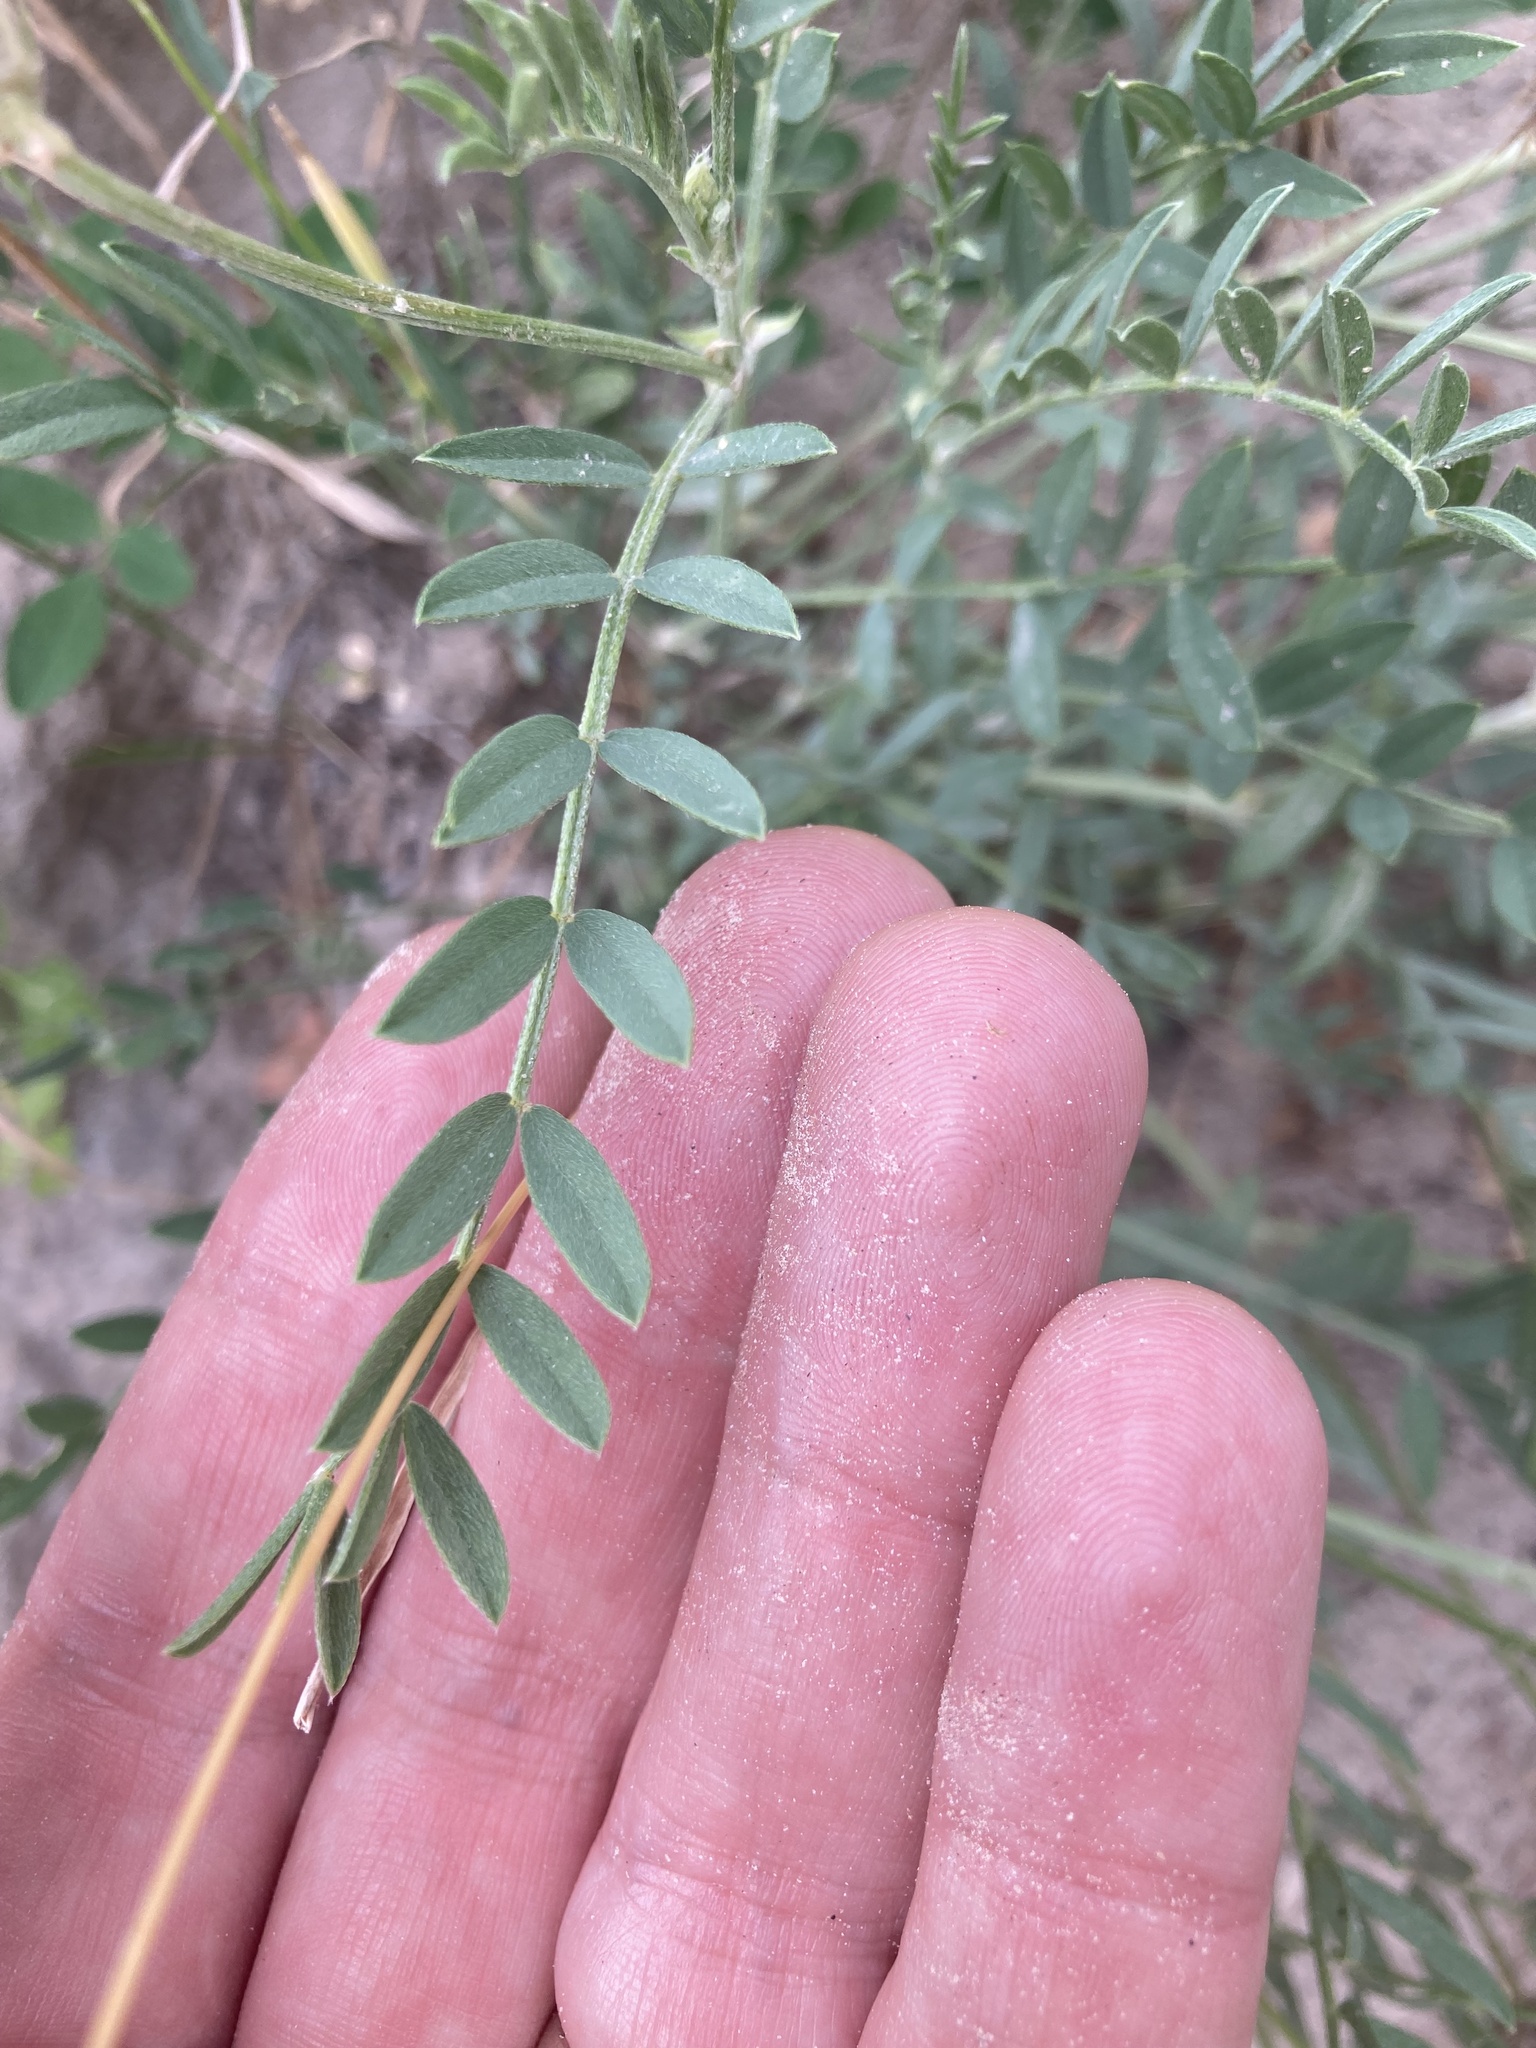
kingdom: Plantae
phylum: Tracheophyta
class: Magnoliopsida
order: Fabales
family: Fabaceae
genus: Astragalus
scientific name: Astragalus laxmannii
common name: Laxmann's milk-vetch
